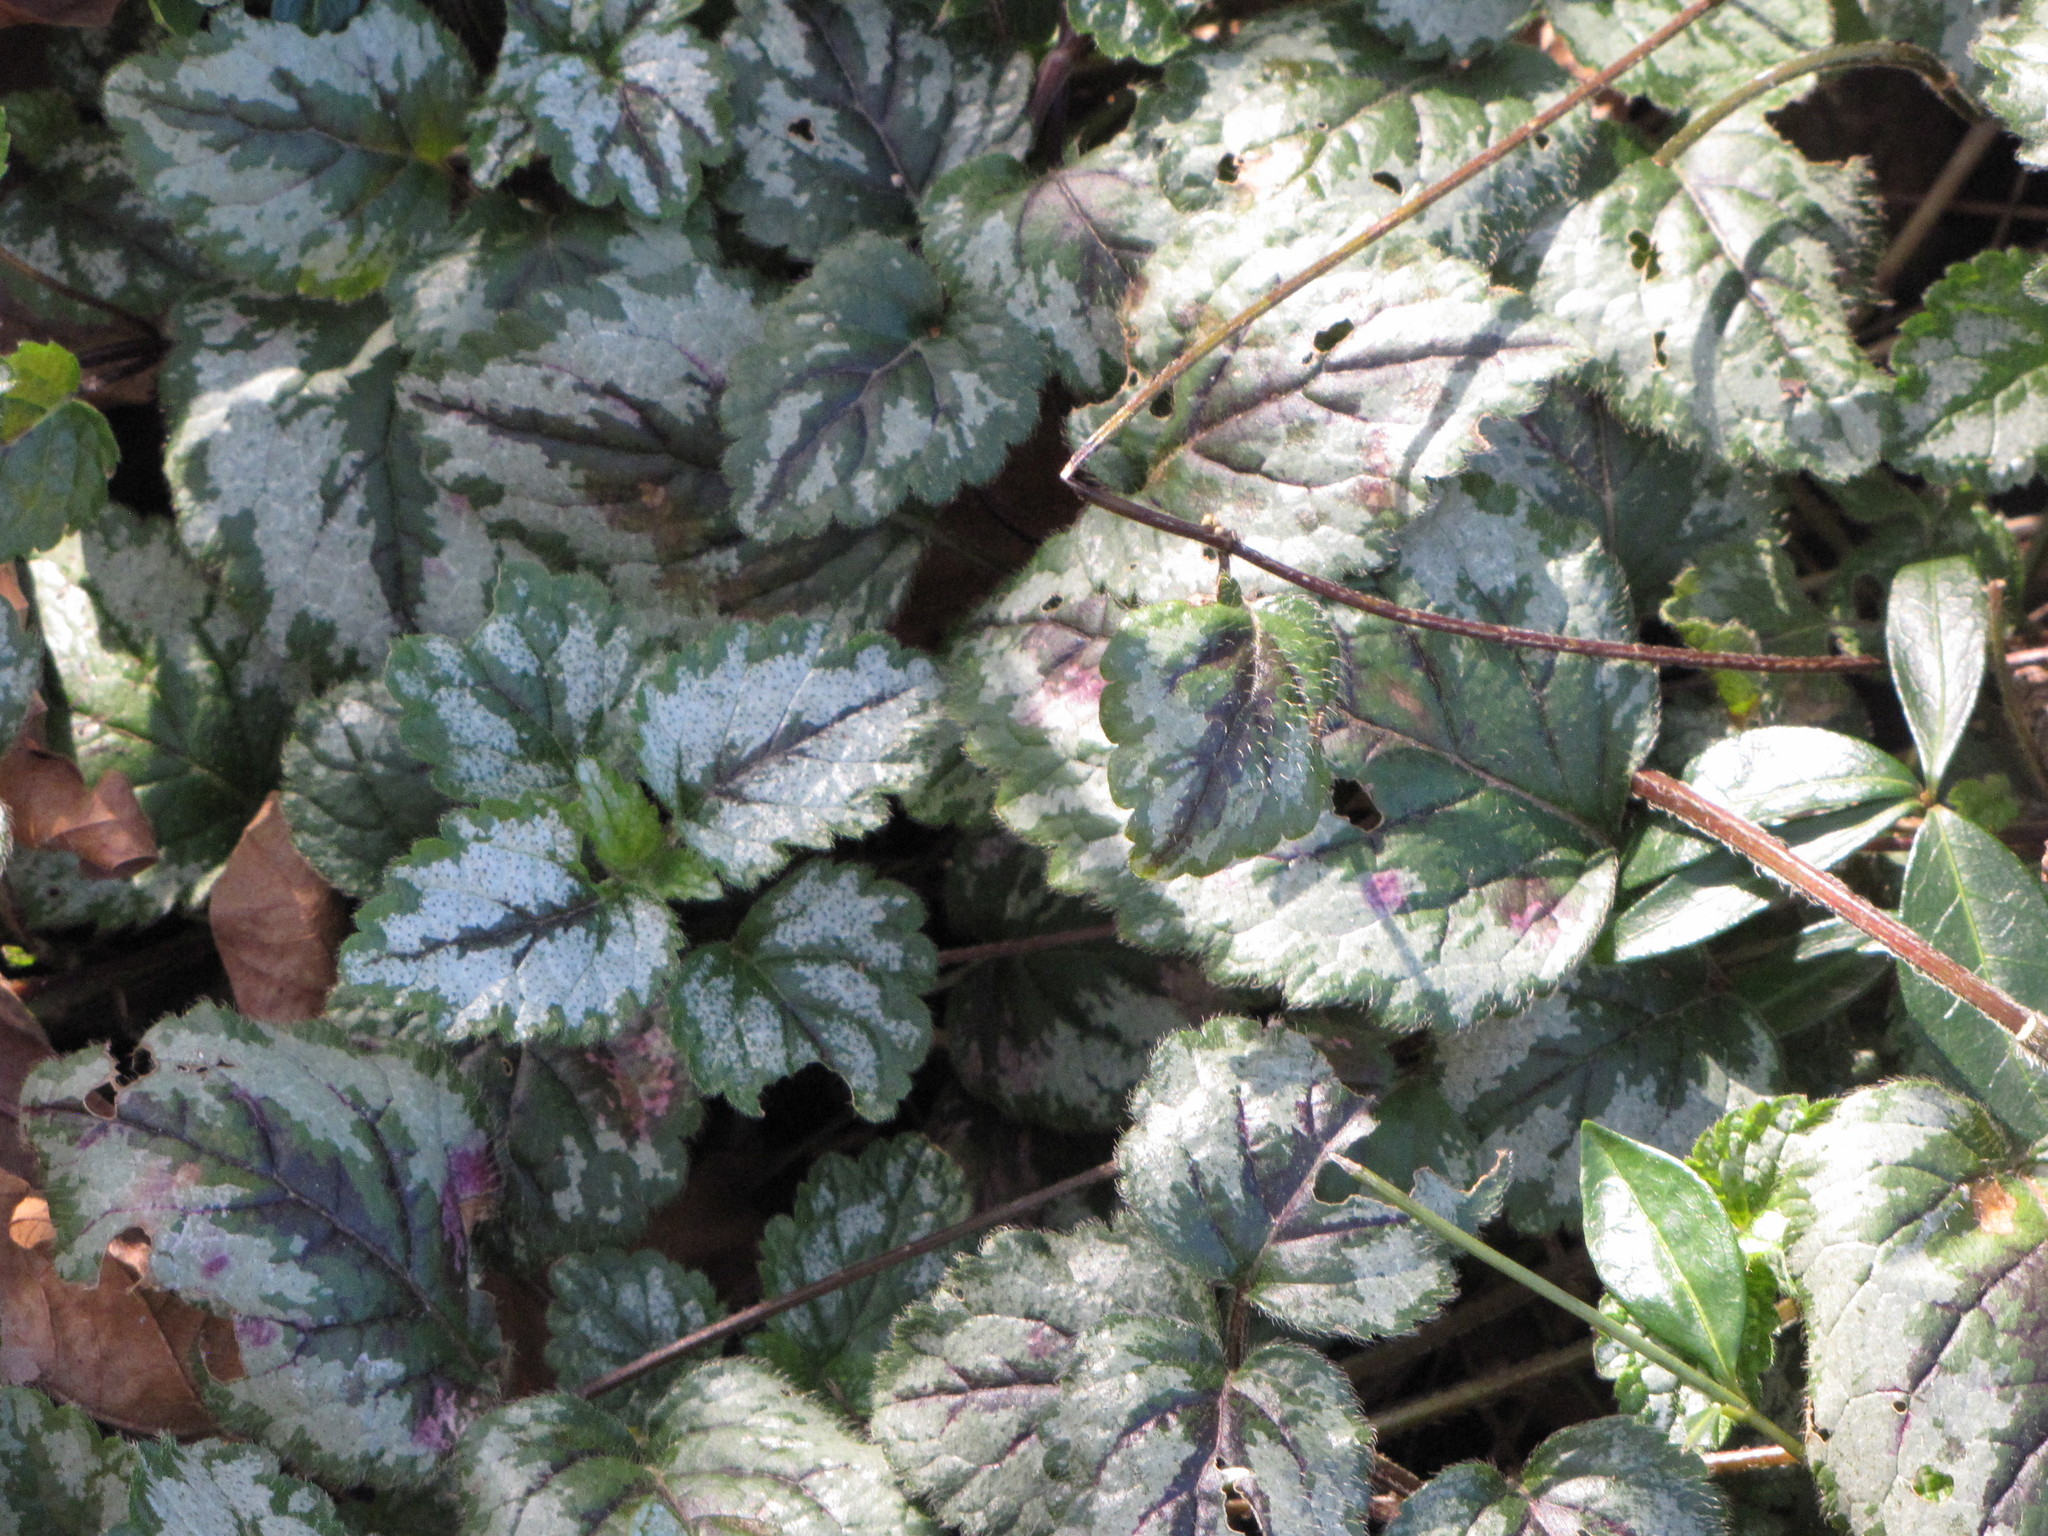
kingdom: Plantae
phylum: Tracheophyta
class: Magnoliopsida
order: Lamiales
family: Lamiaceae
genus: Lamium
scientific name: Lamium galeobdolon
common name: Yellow archangel
